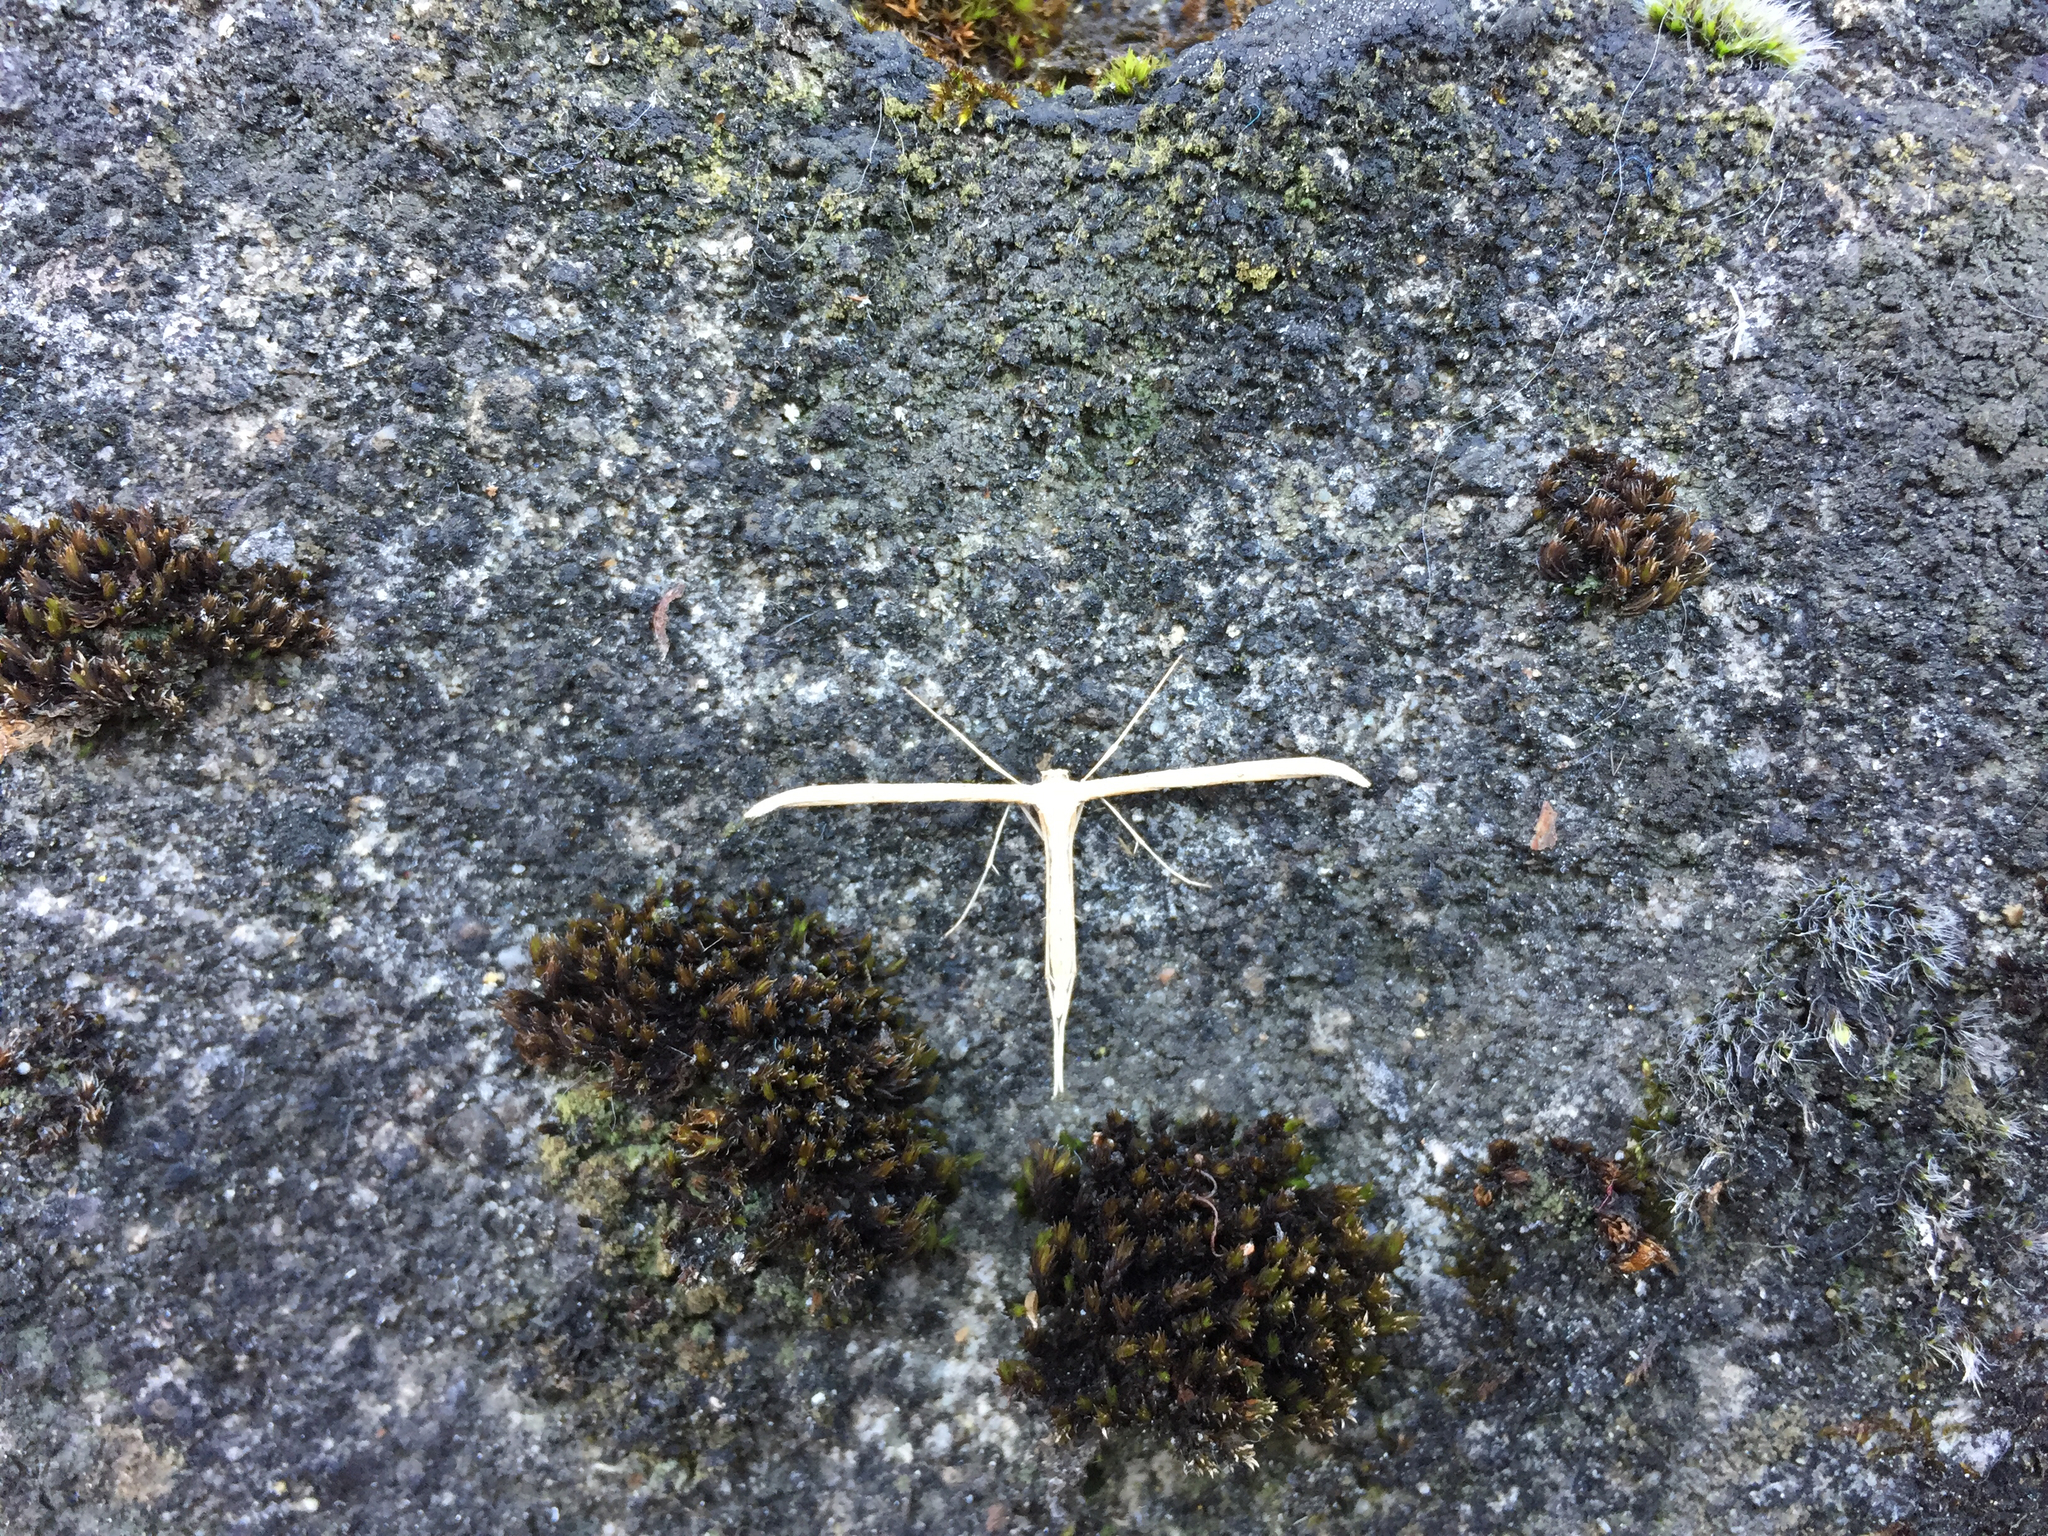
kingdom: Animalia
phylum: Arthropoda
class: Insecta
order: Lepidoptera
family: Pterophoridae
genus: Emmelina
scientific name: Emmelina monodactyla
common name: Common plume
